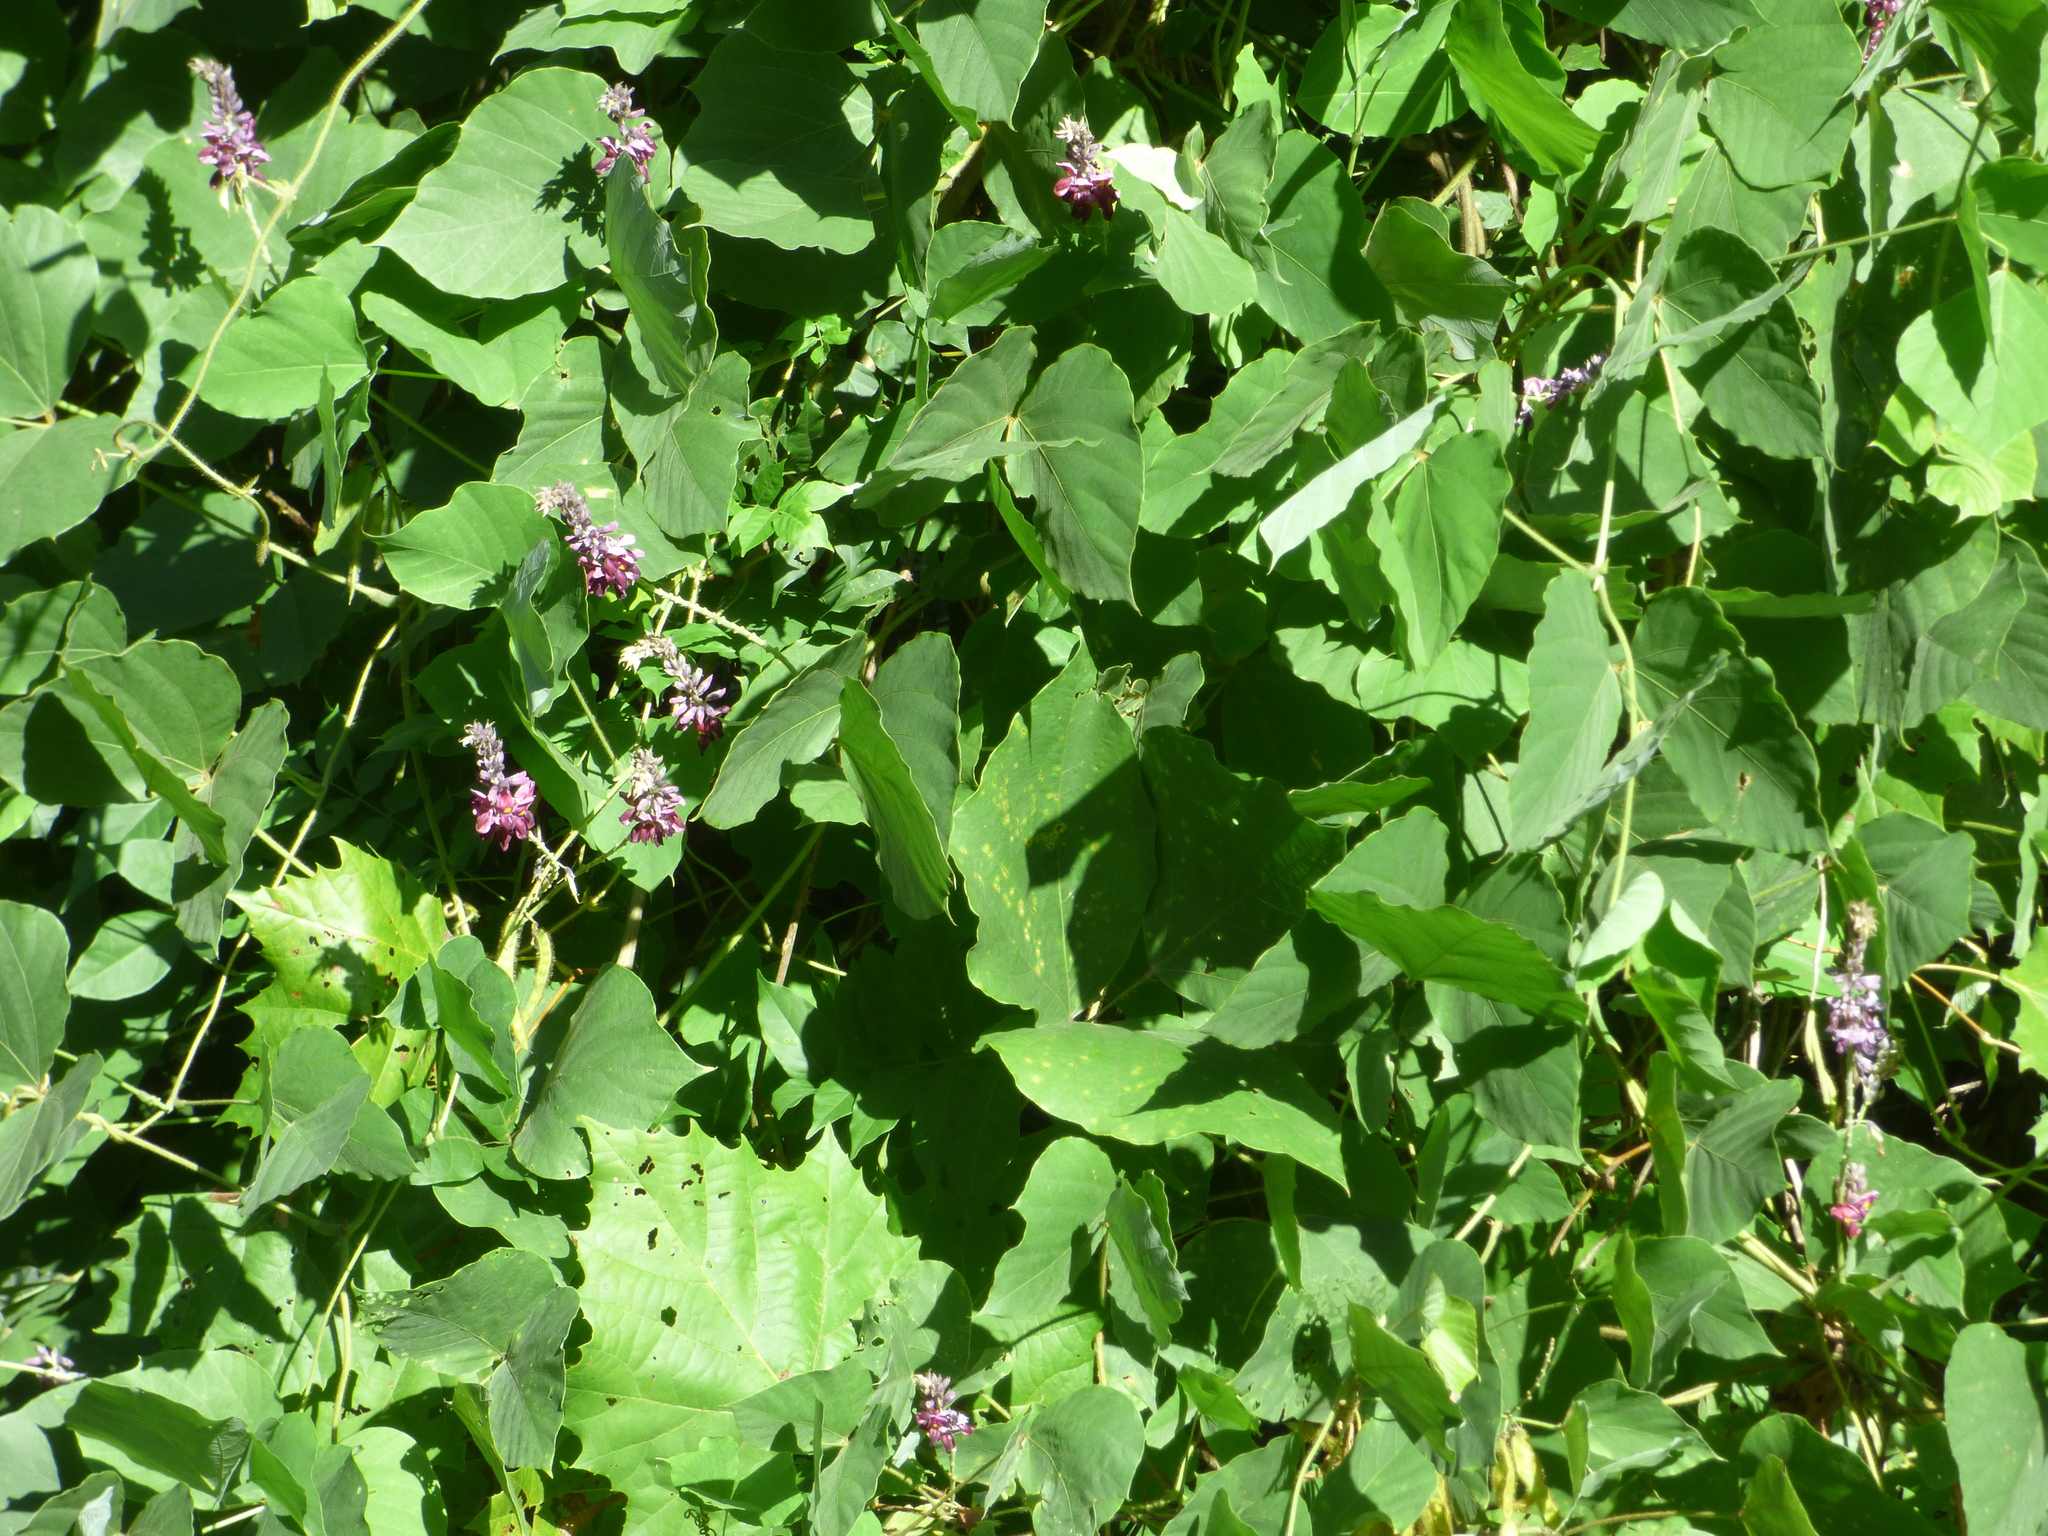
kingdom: Plantae
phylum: Tracheophyta
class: Magnoliopsida
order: Fabales
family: Fabaceae
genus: Pueraria
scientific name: Pueraria montana
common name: Kudzu
